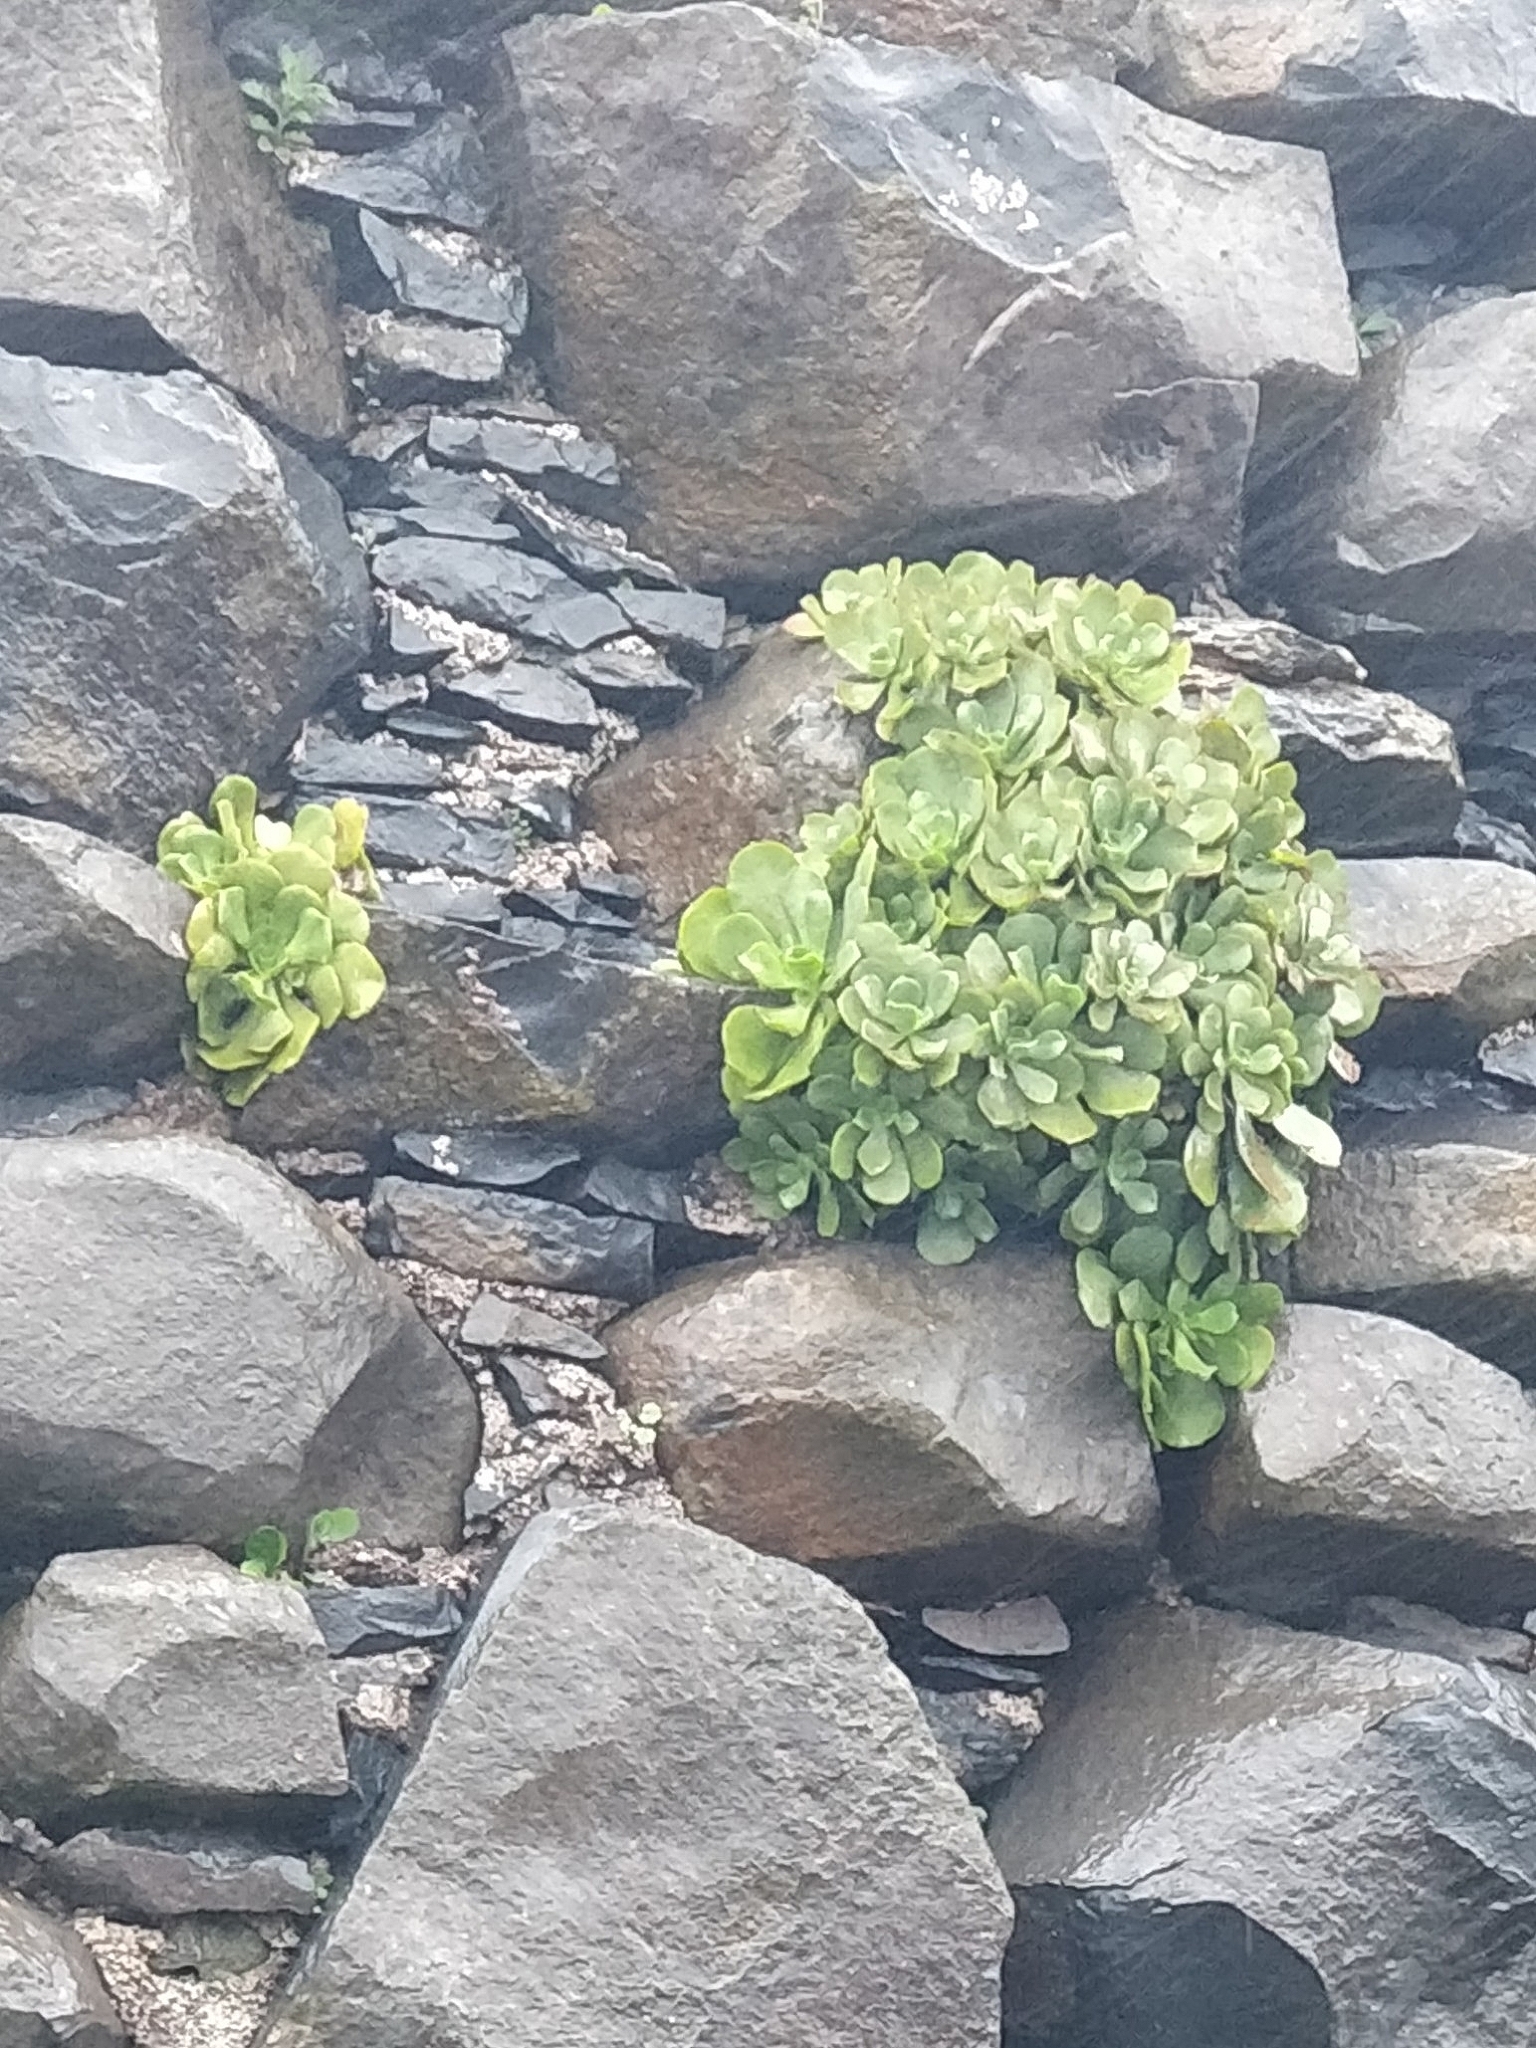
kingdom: Plantae
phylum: Tracheophyta
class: Magnoliopsida
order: Saxifragales
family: Crassulaceae
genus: Aeonium
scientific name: Aeonium glutinosum
